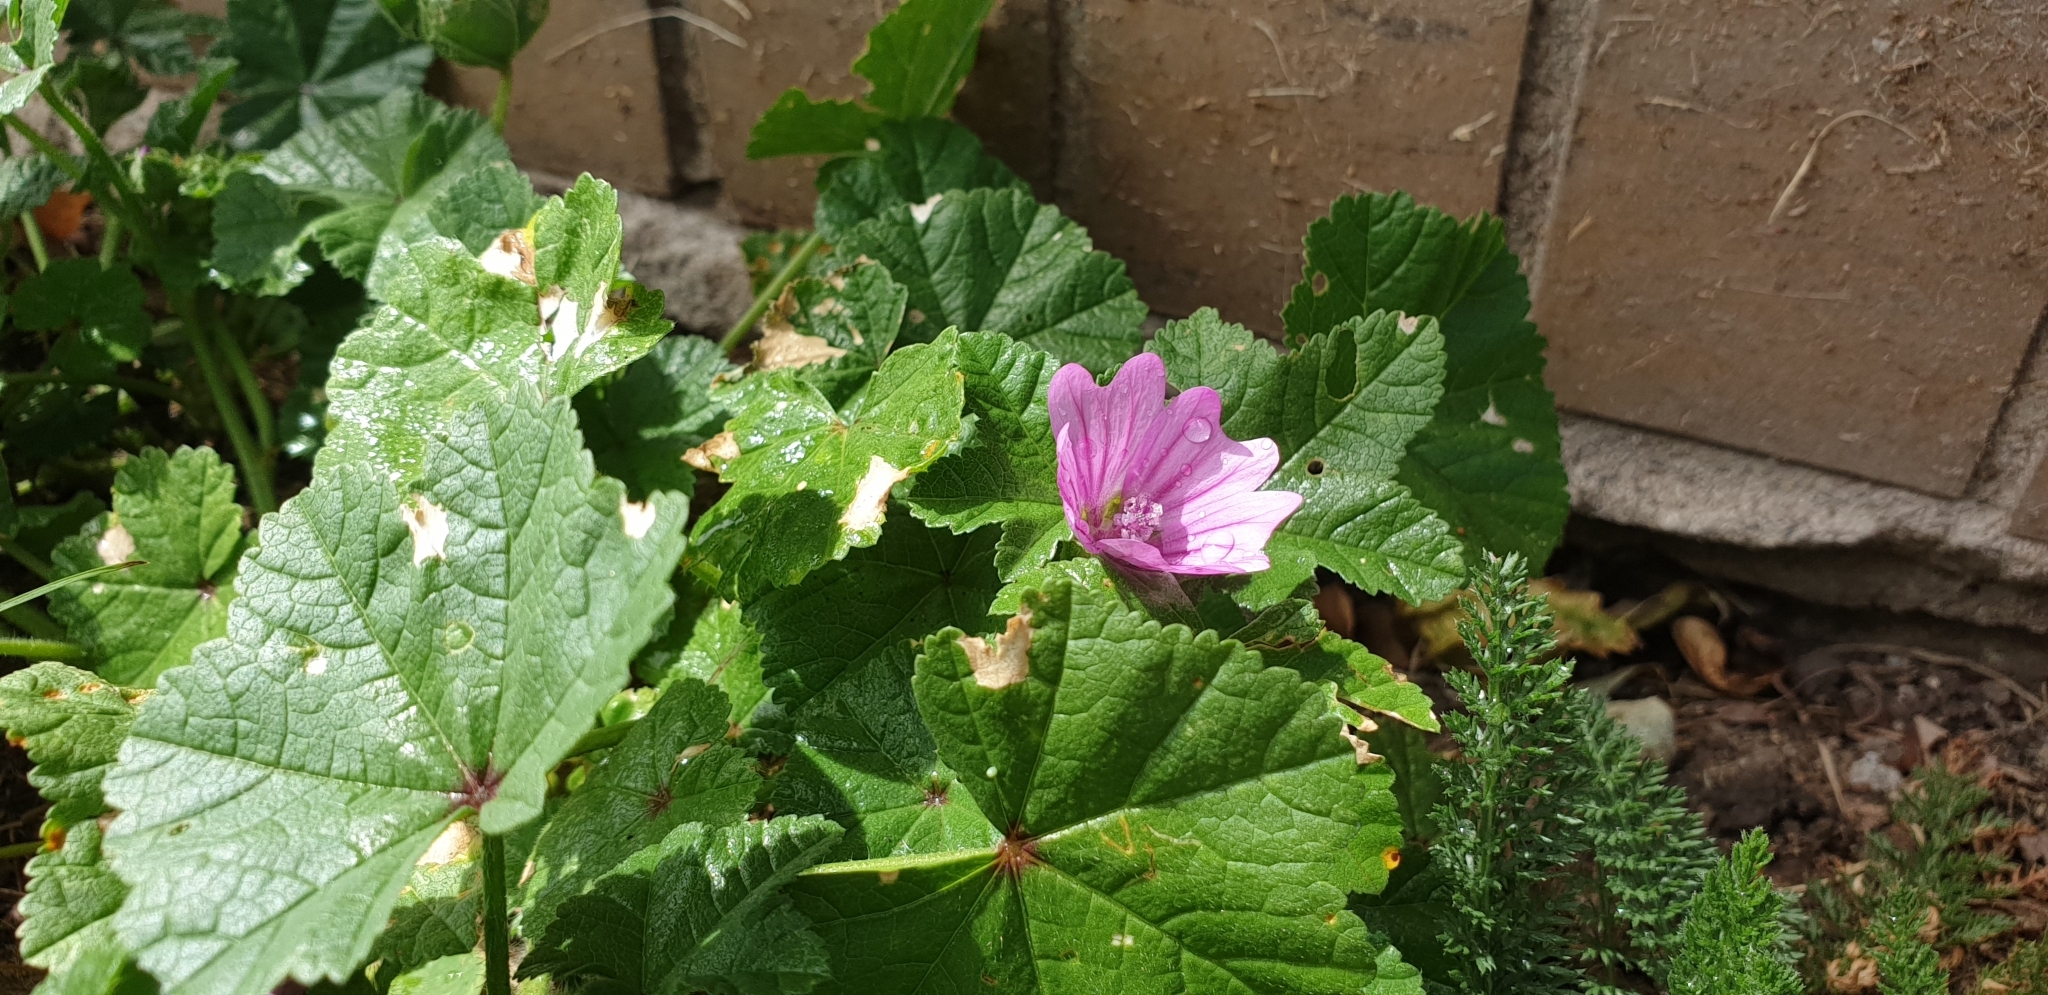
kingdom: Plantae
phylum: Tracheophyta
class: Magnoliopsida
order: Malvales
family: Malvaceae
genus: Malva
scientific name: Malva sylvestris
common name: Common mallow
